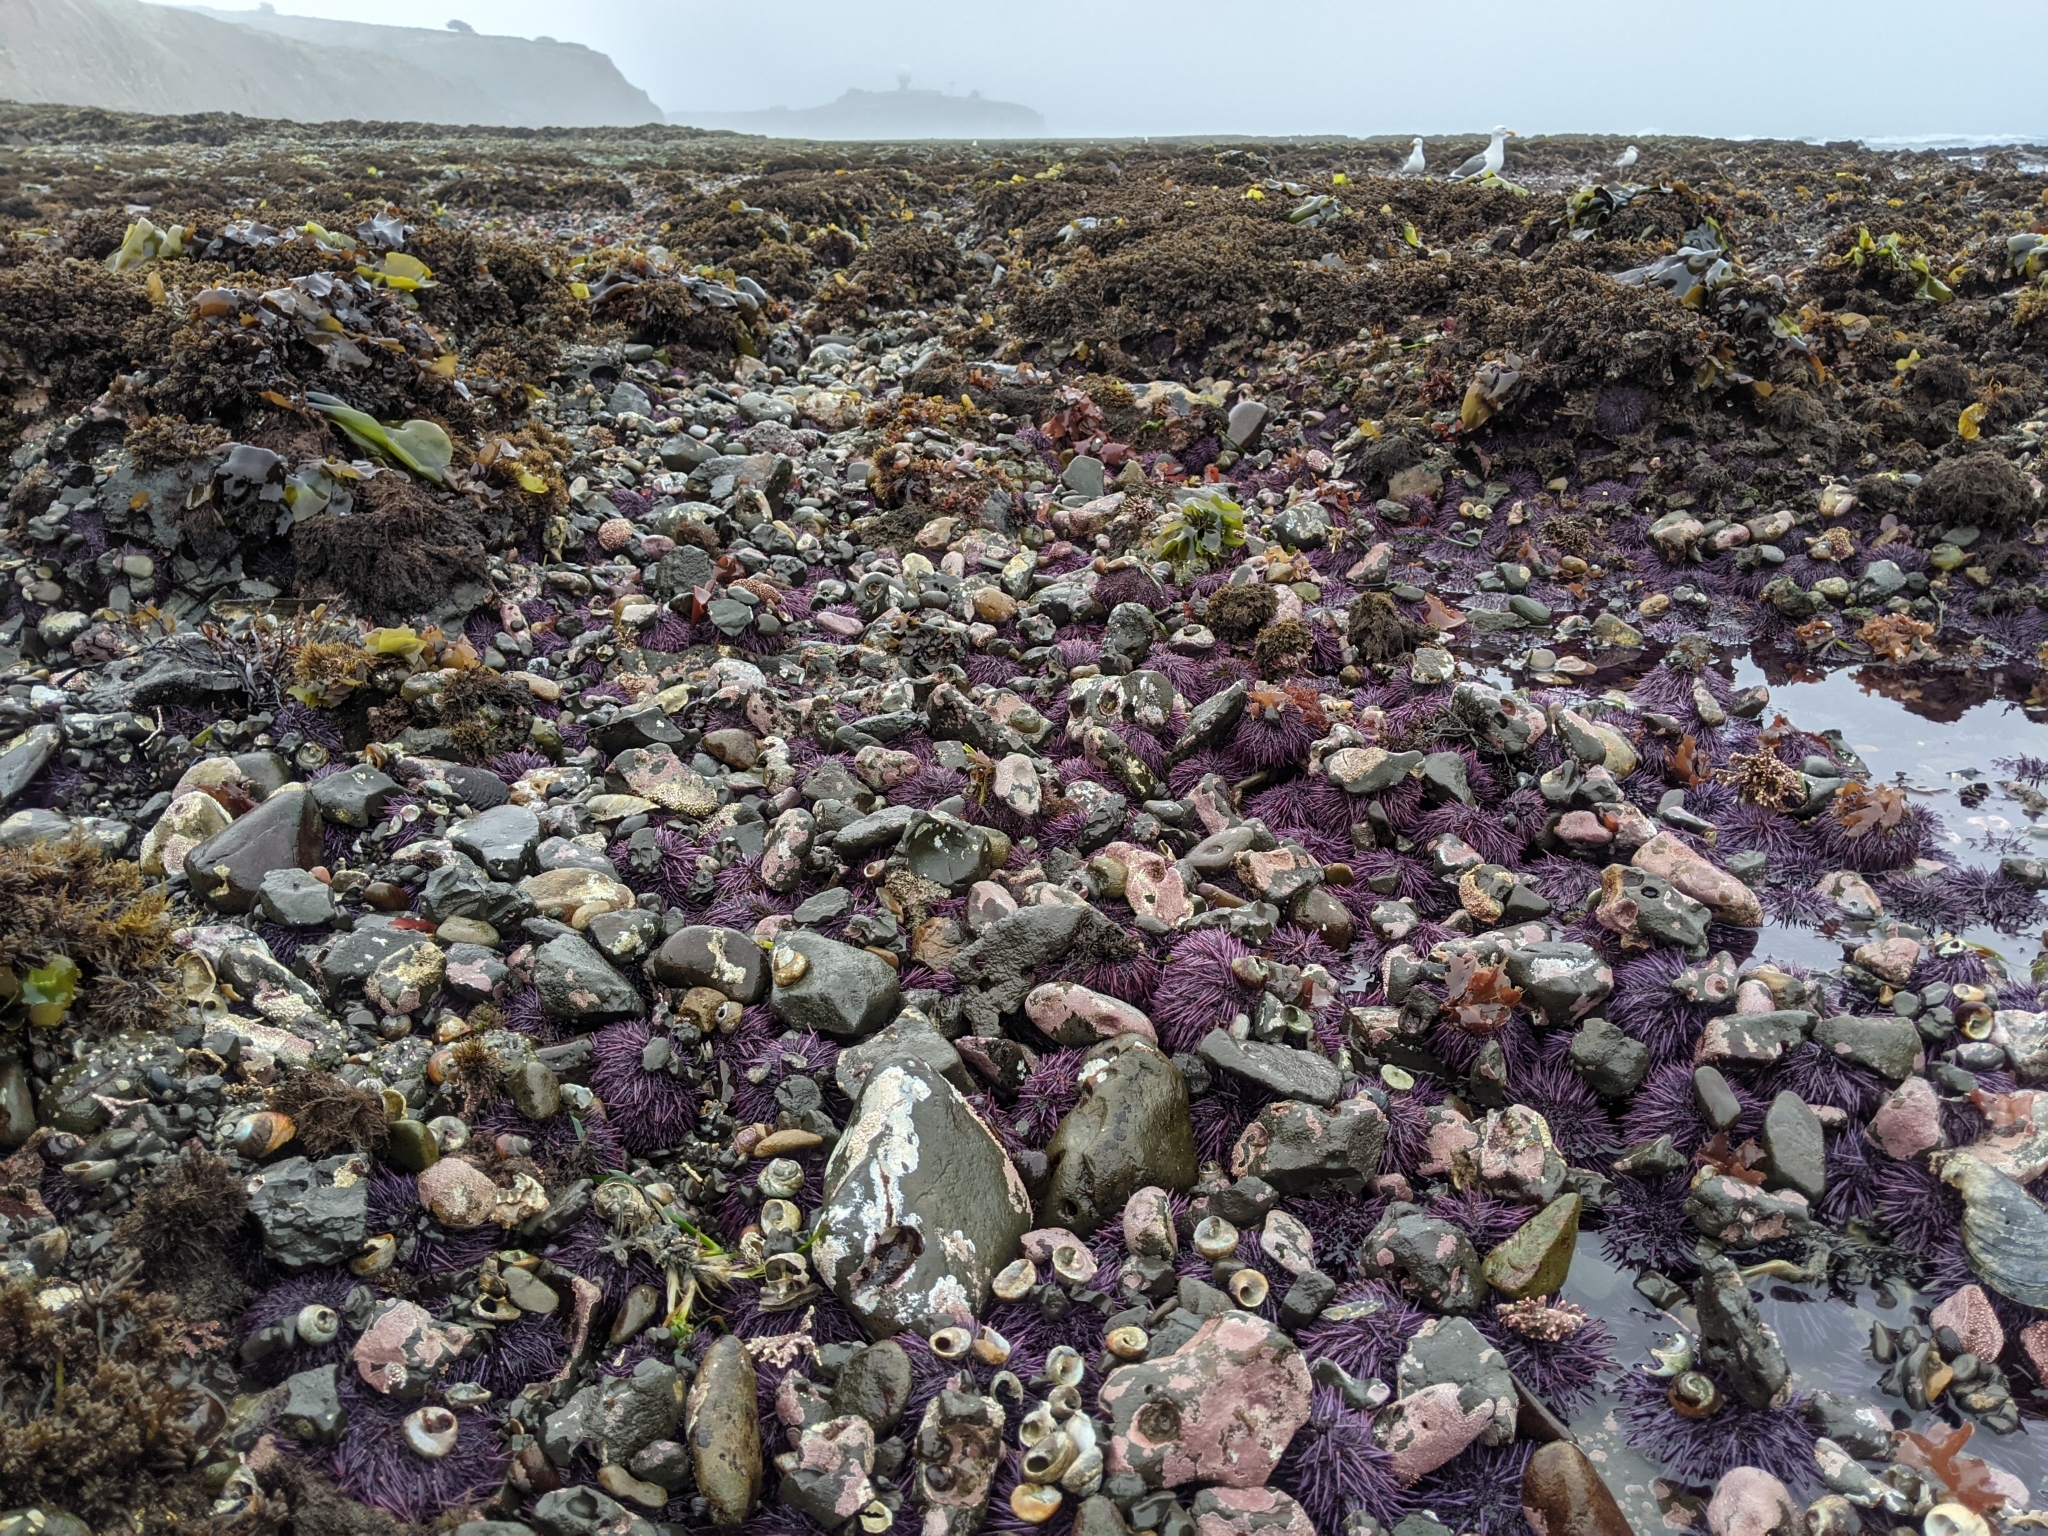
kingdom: Animalia
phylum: Echinodermata
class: Echinoidea
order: Camarodonta
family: Strongylocentrotidae
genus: Strongylocentrotus
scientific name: Strongylocentrotus purpuratus
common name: Purple sea urchin
